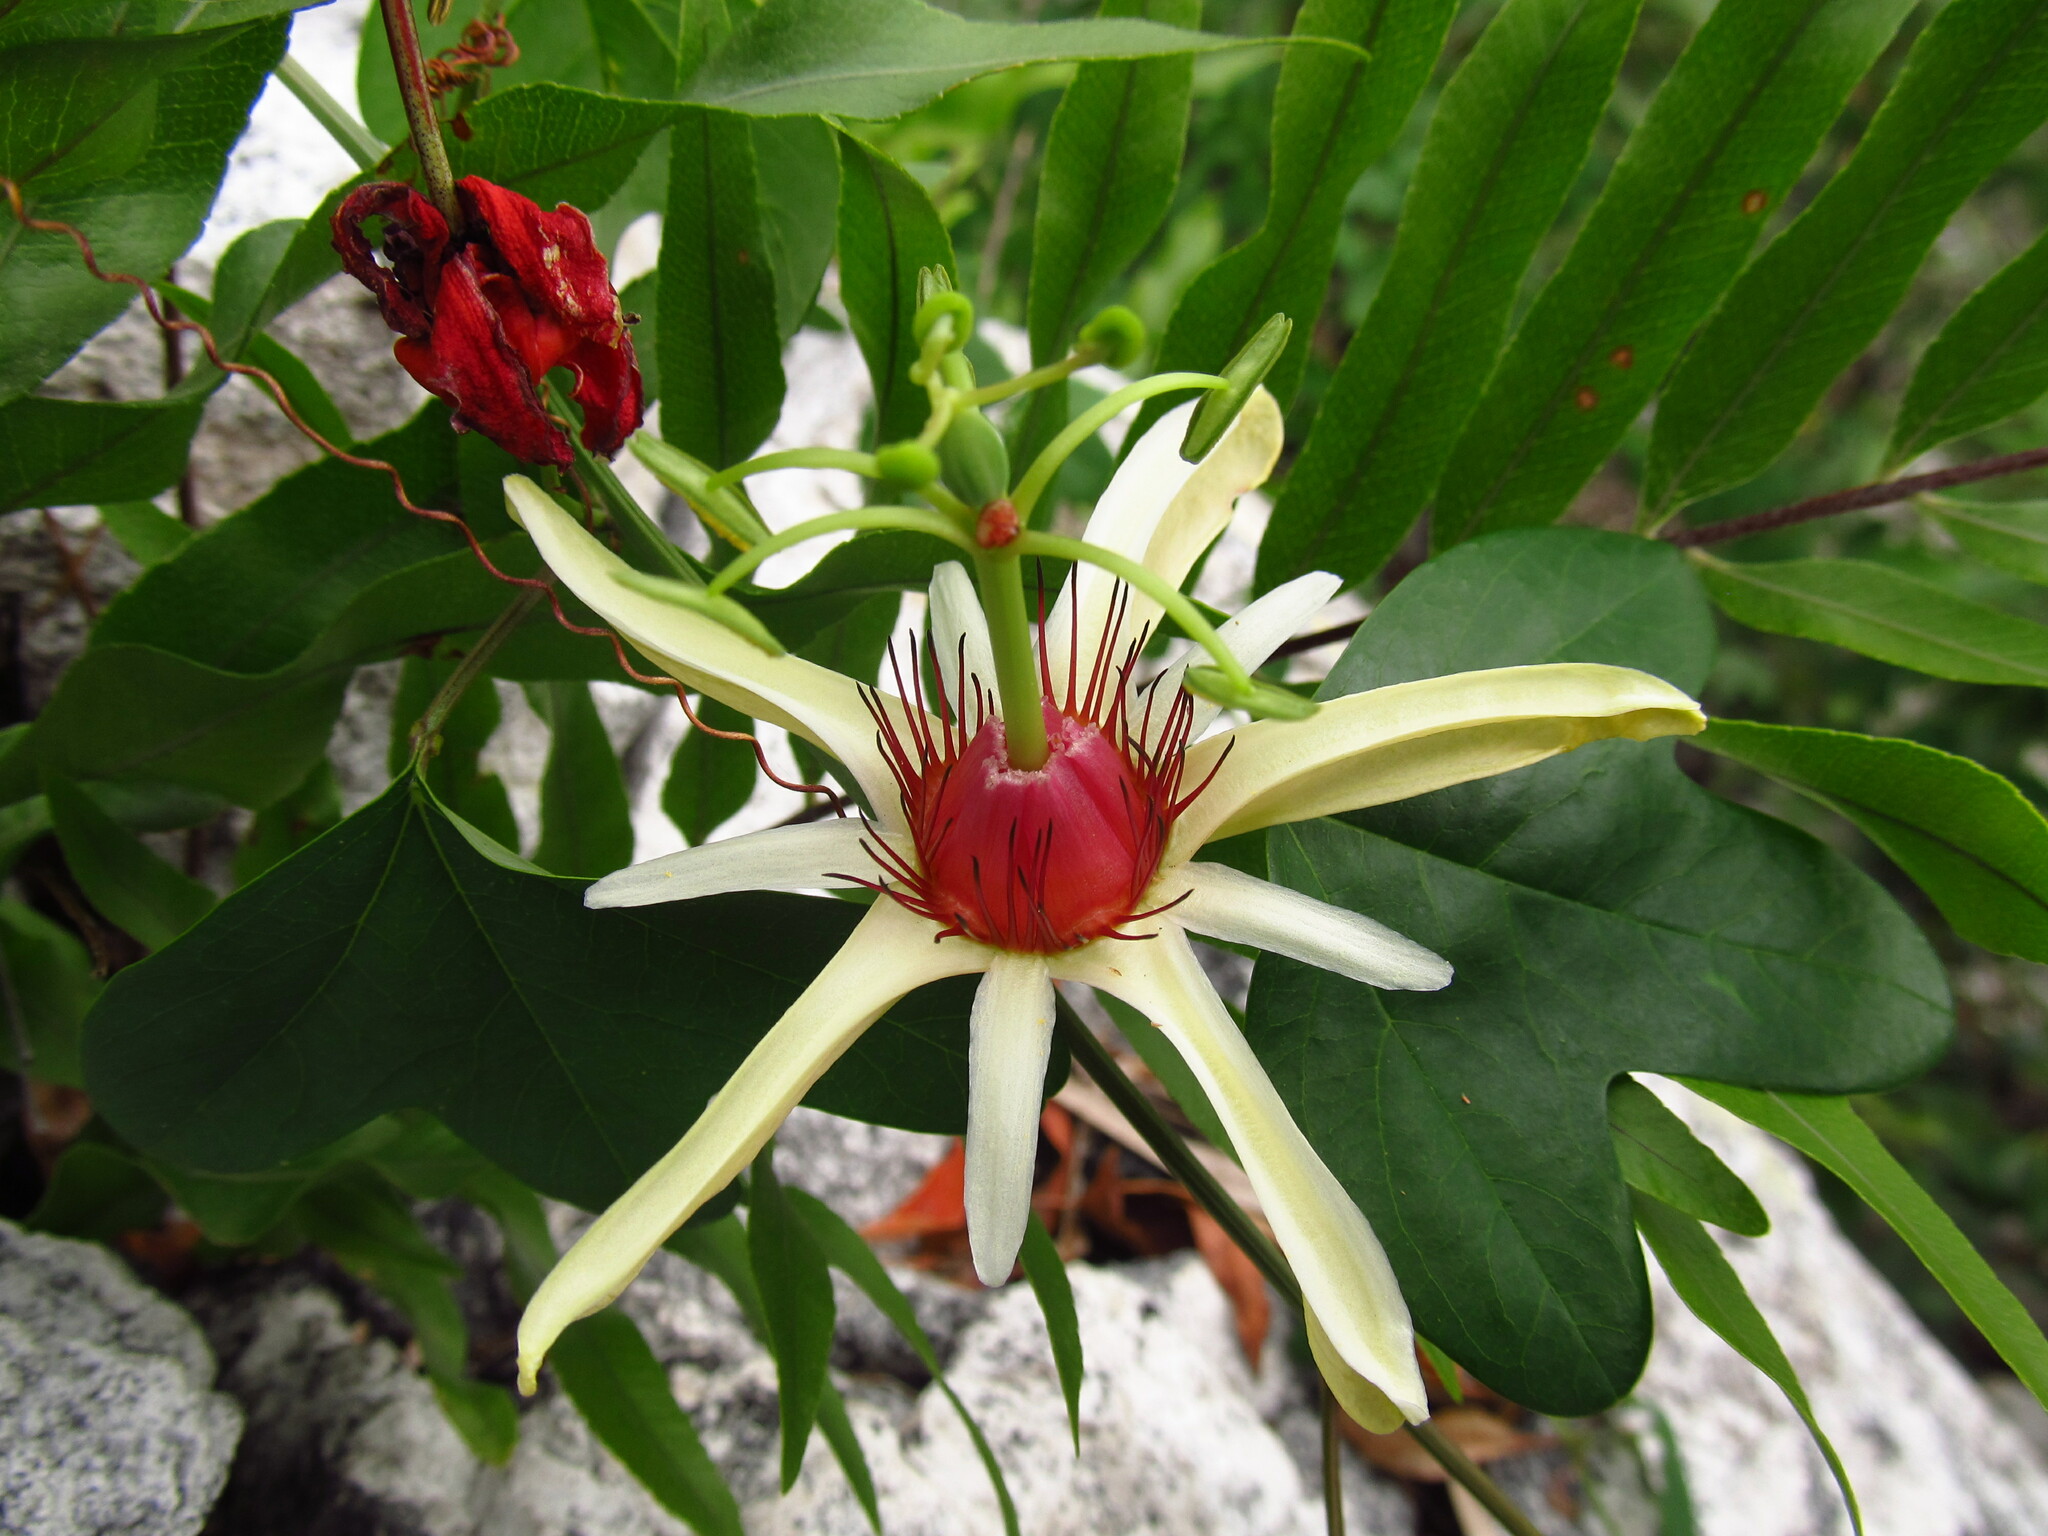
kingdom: Plantae
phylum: Tracheophyta
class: Magnoliopsida
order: Malpighiales
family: Passifloraceae
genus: Passiflora
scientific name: Passiflora aurantia
